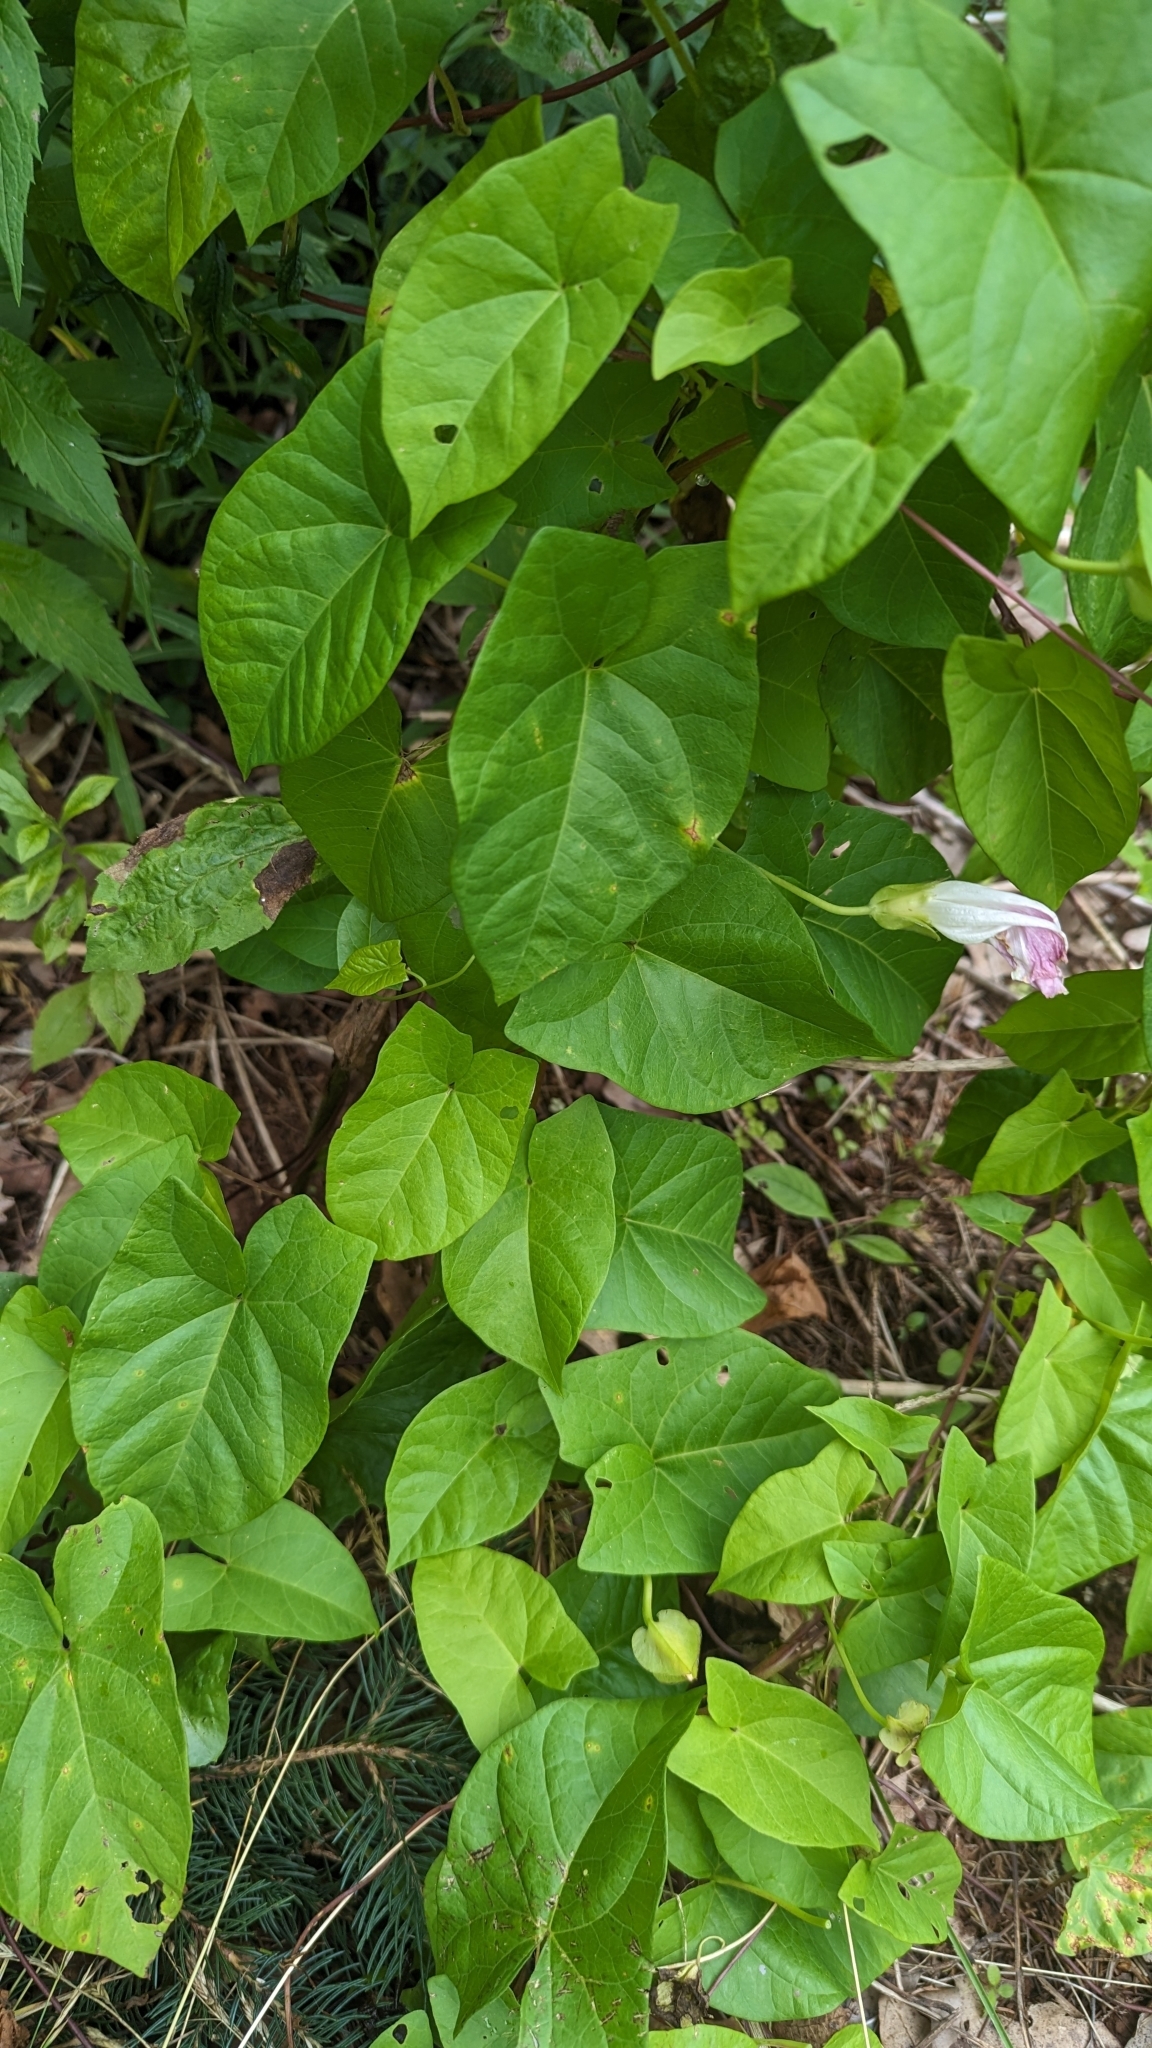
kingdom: Plantae
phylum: Tracheophyta
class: Magnoliopsida
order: Solanales
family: Convolvulaceae
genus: Calystegia
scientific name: Calystegia sepium
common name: Hedge bindweed
